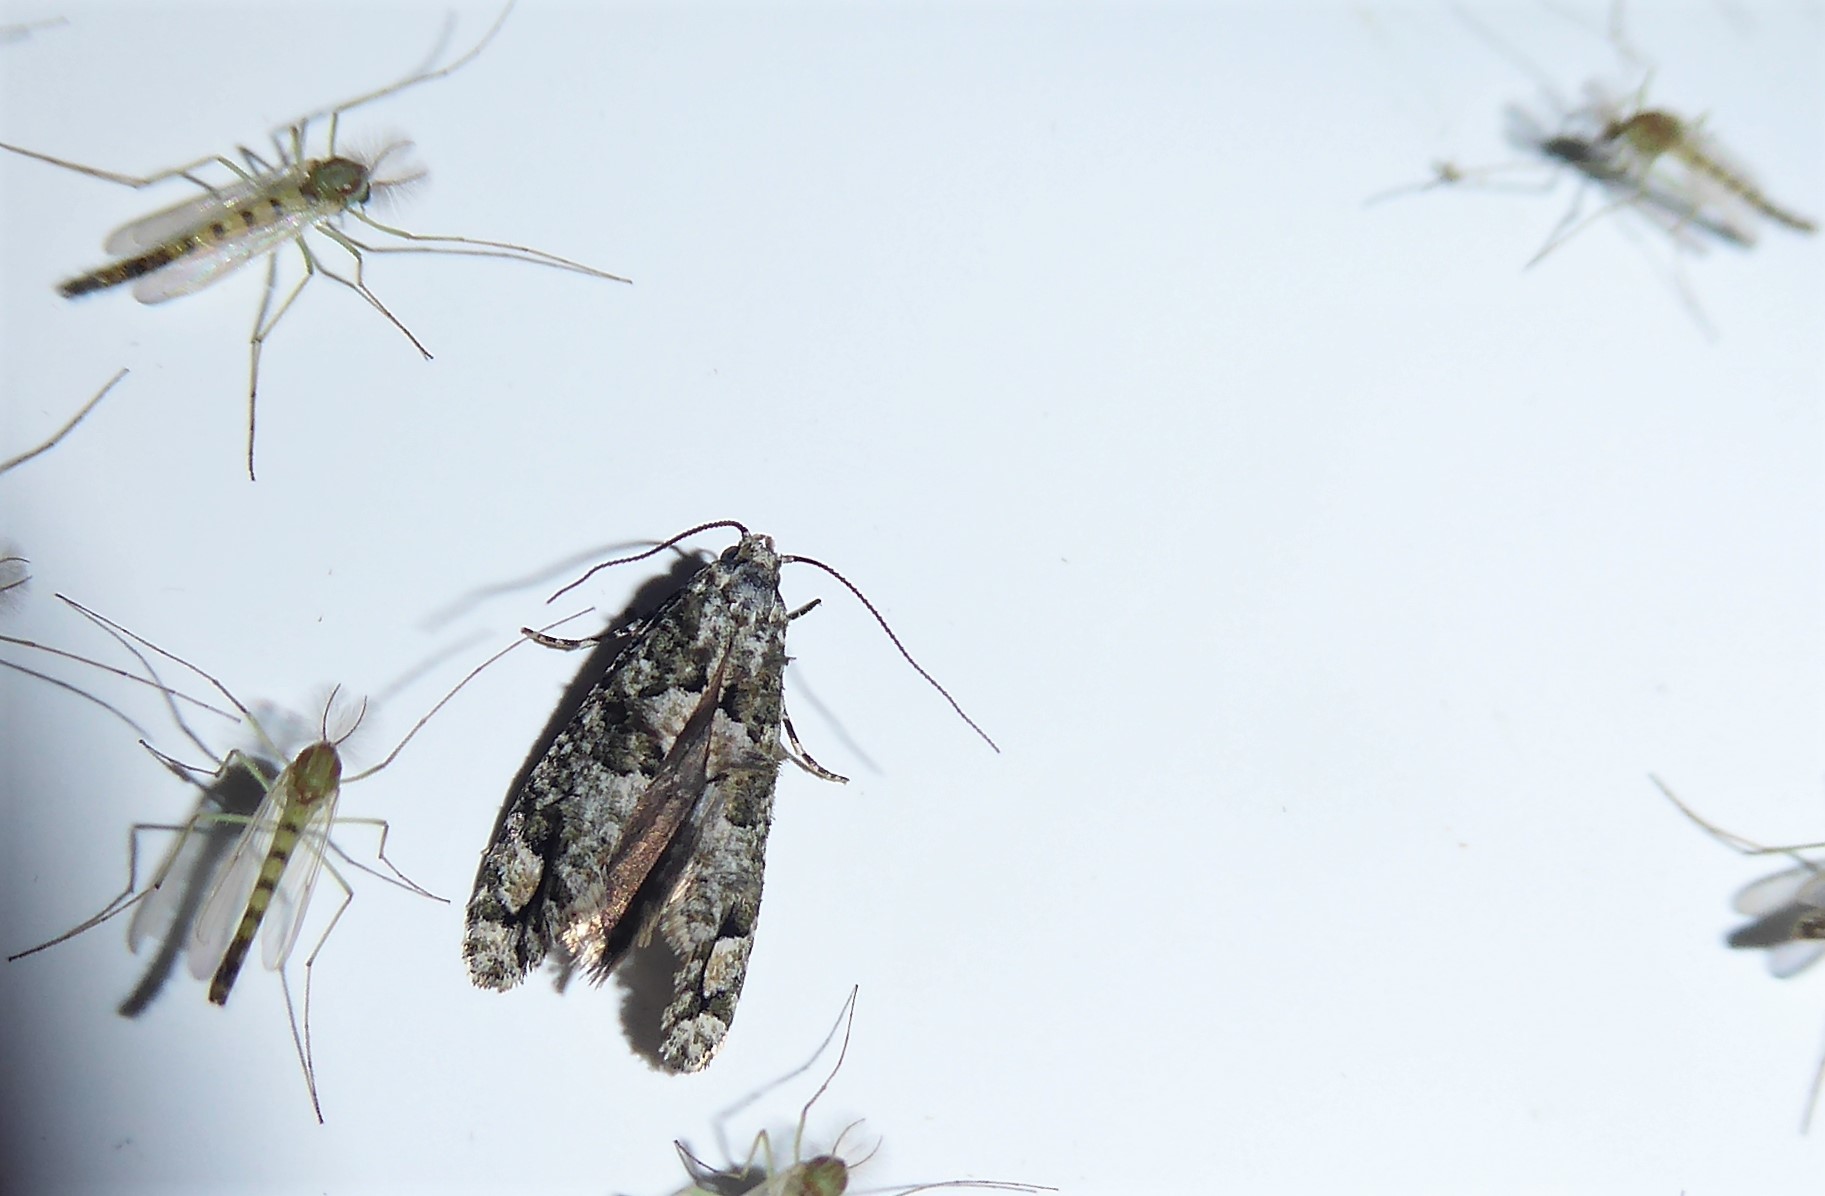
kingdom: Animalia
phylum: Arthropoda
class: Insecta
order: Lepidoptera
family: Tineidae
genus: Lysiphragma
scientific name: Lysiphragma howesii
